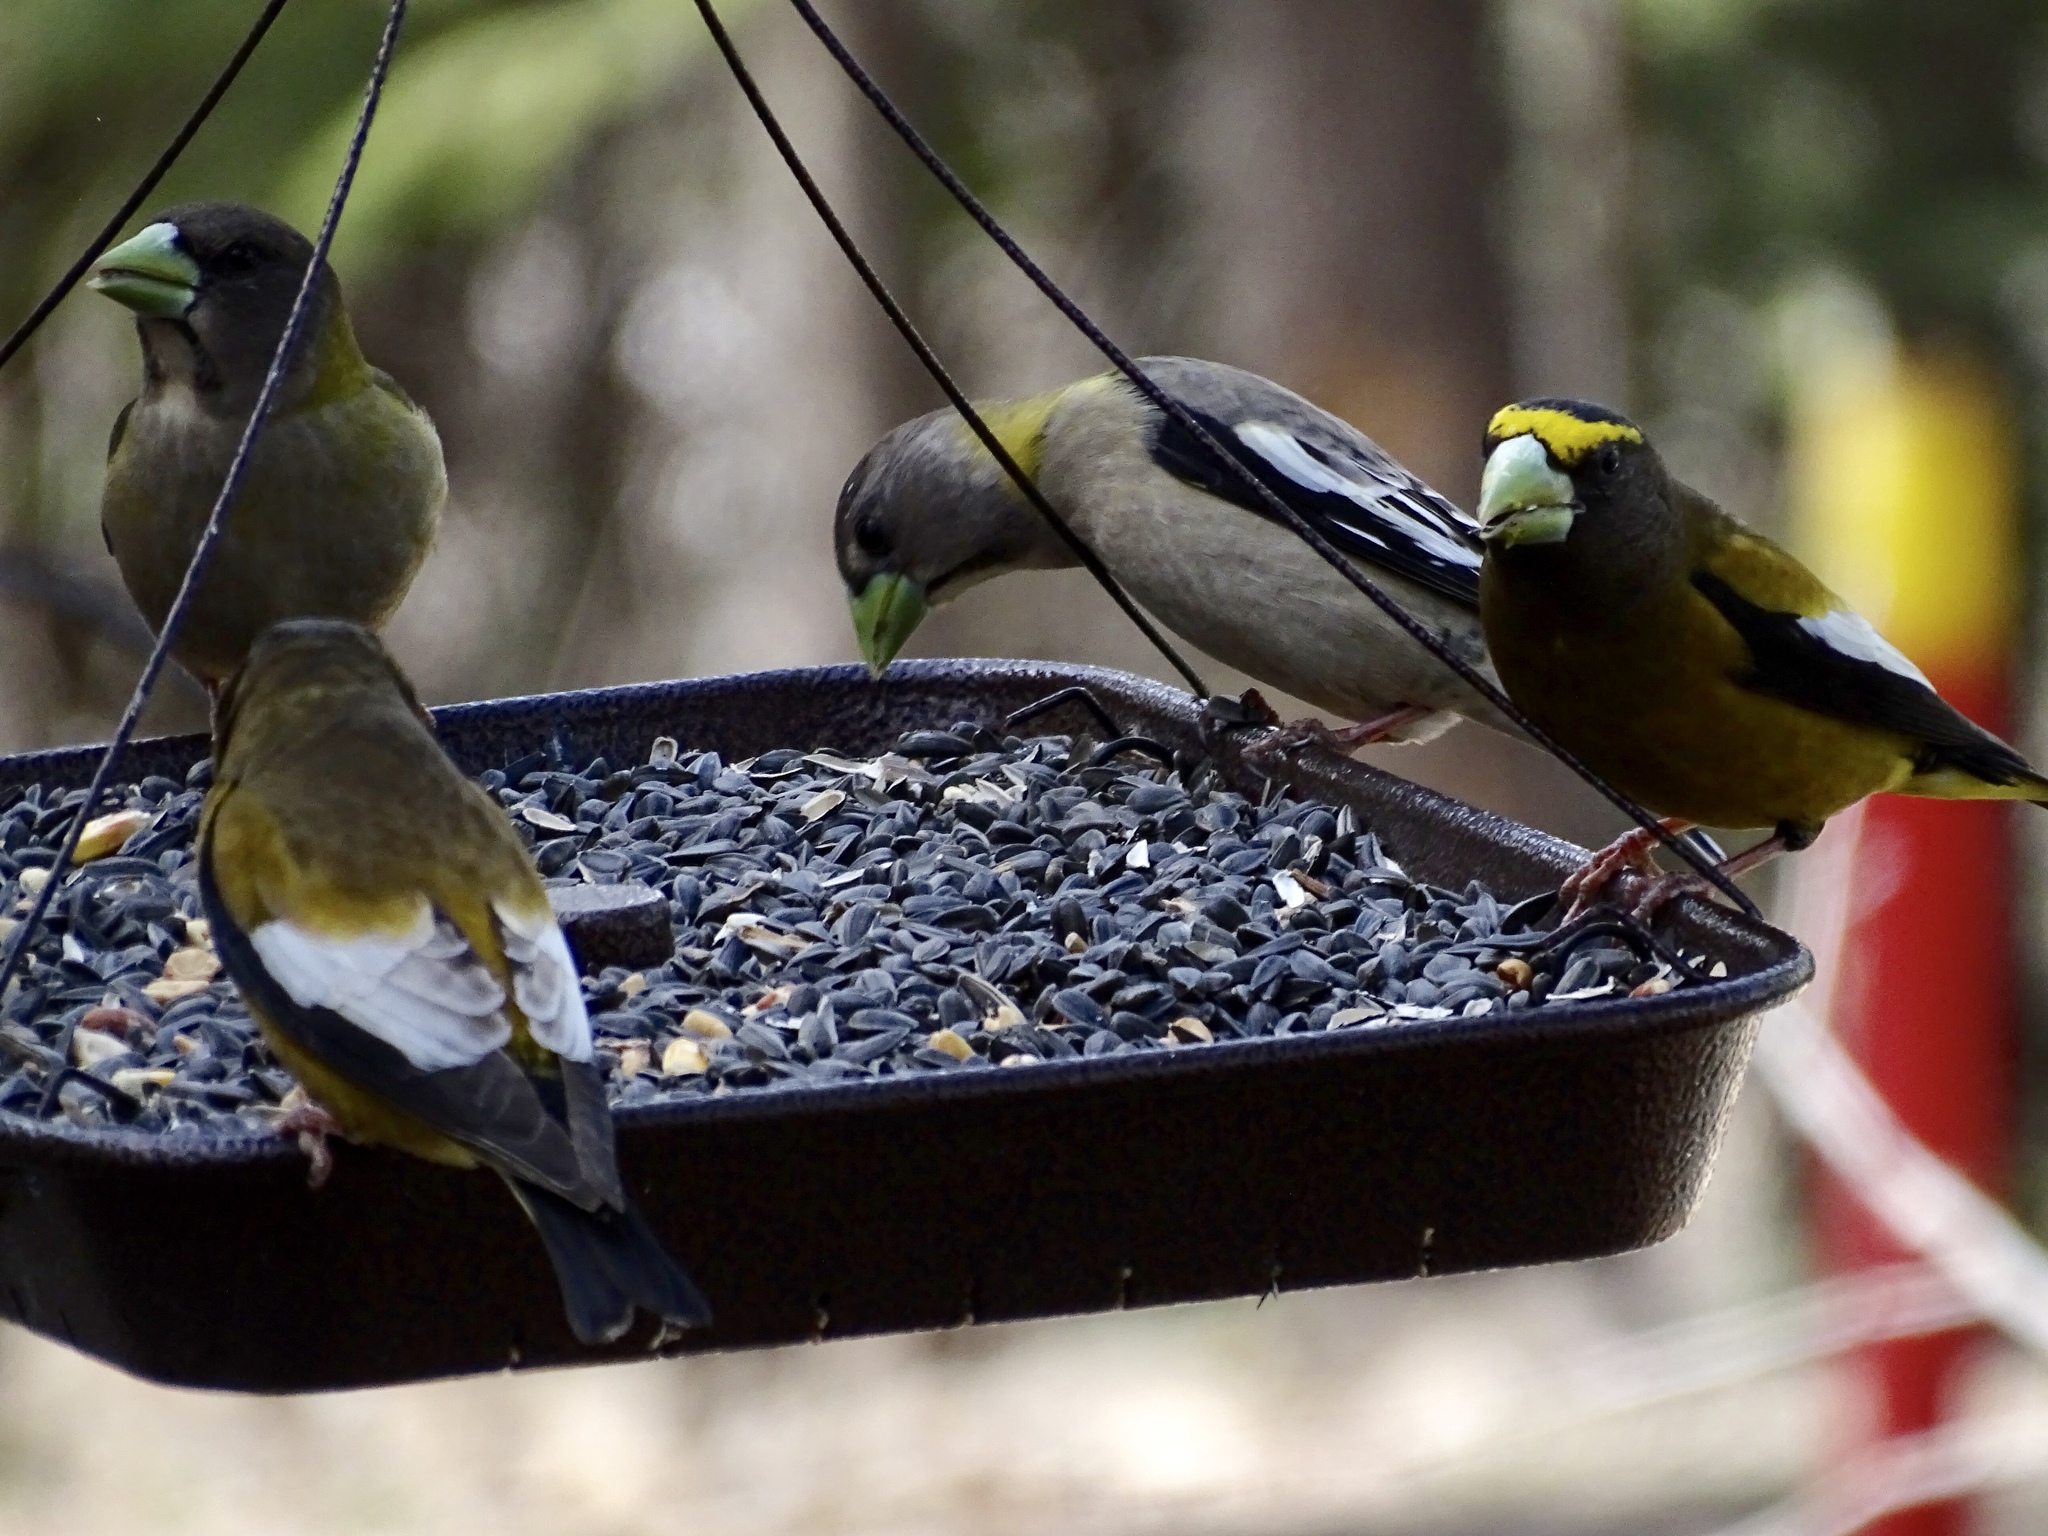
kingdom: Animalia
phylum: Chordata
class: Aves
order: Passeriformes
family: Fringillidae
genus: Hesperiphona
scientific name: Hesperiphona vespertina
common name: Evening grosbeak
